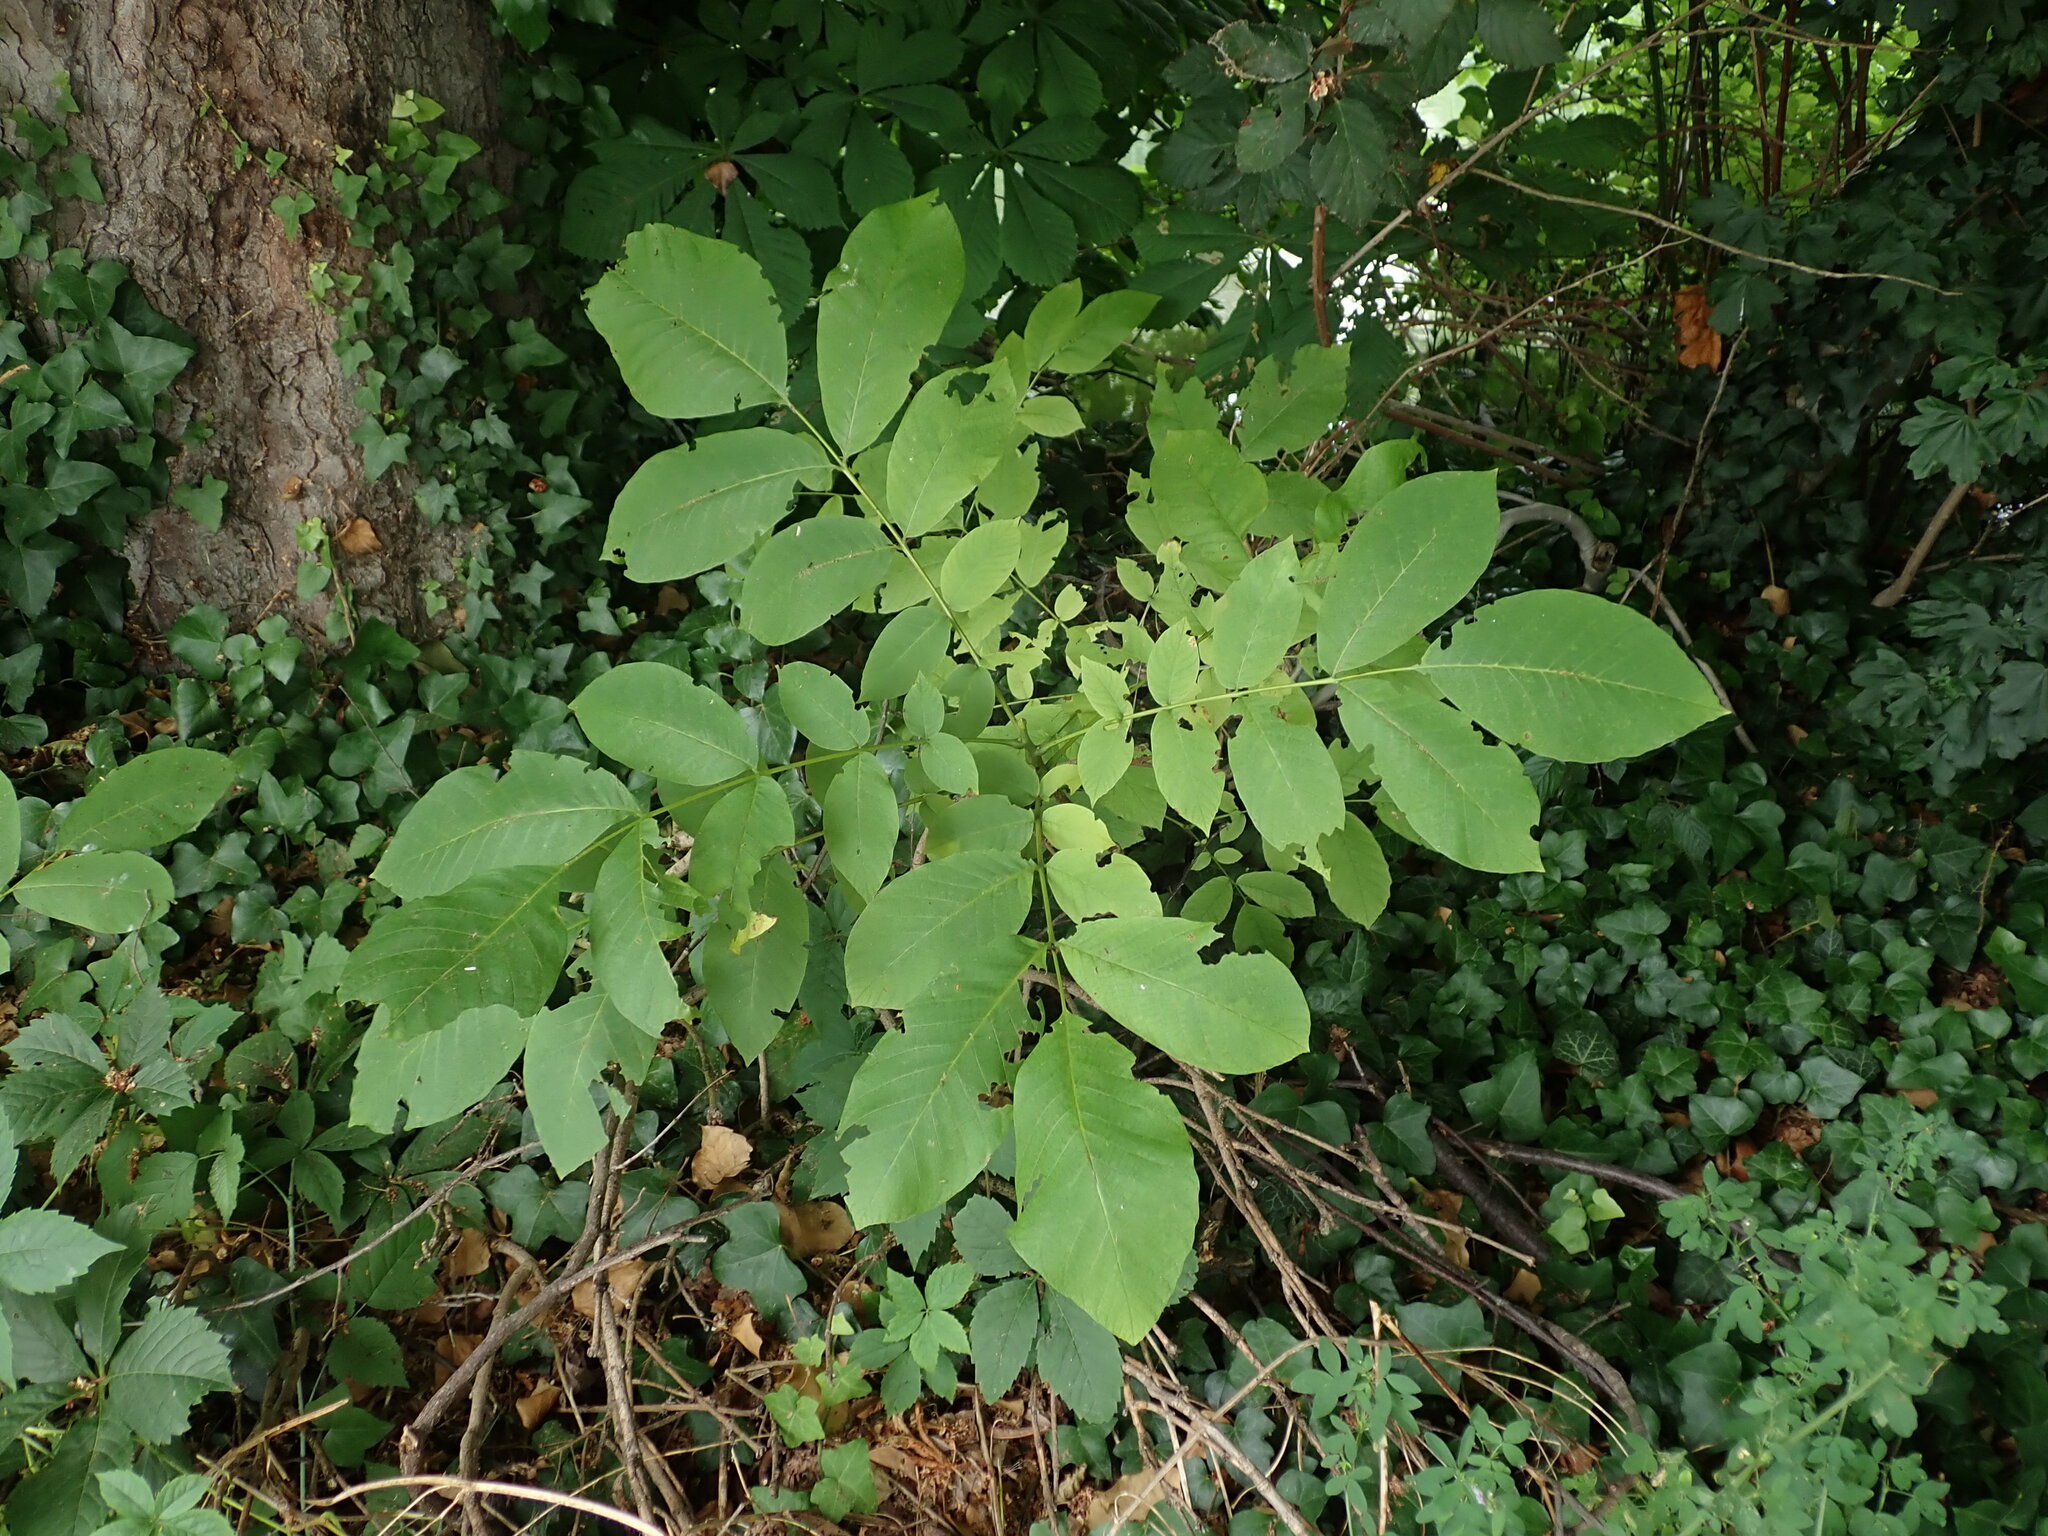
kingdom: Plantae
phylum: Tracheophyta
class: Magnoliopsida
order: Fagales
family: Juglandaceae
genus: Juglans
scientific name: Juglans regia
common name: Walnut
